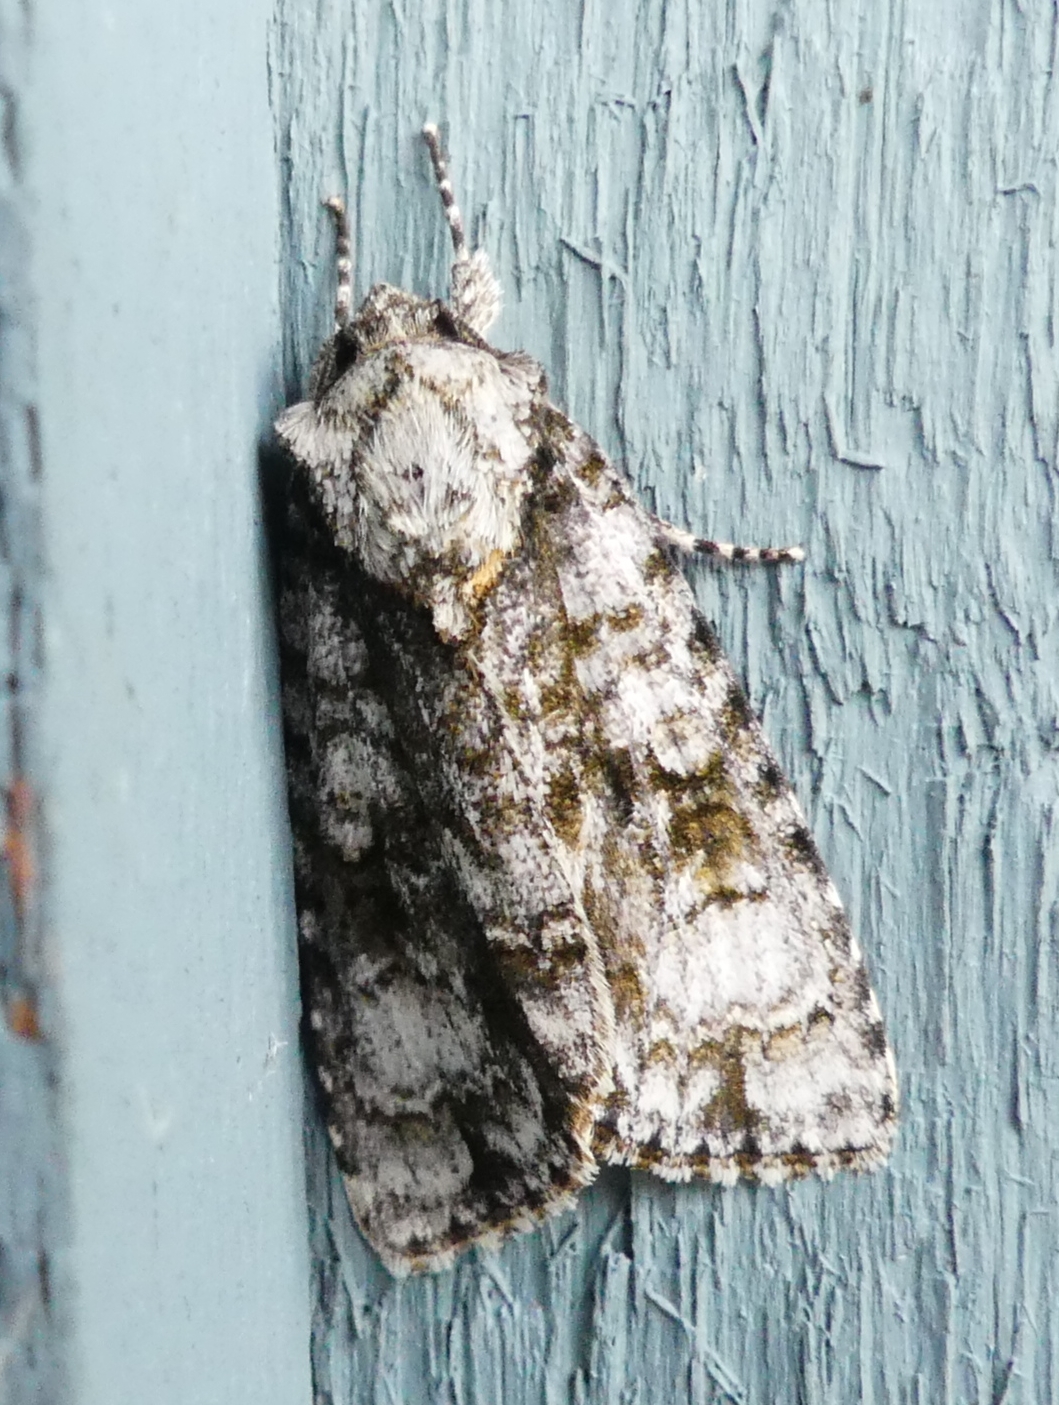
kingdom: Animalia
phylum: Arthropoda
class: Insecta
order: Lepidoptera
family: Noctuidae
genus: Acronicta
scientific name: Acronicta superans
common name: Splendid dagger
